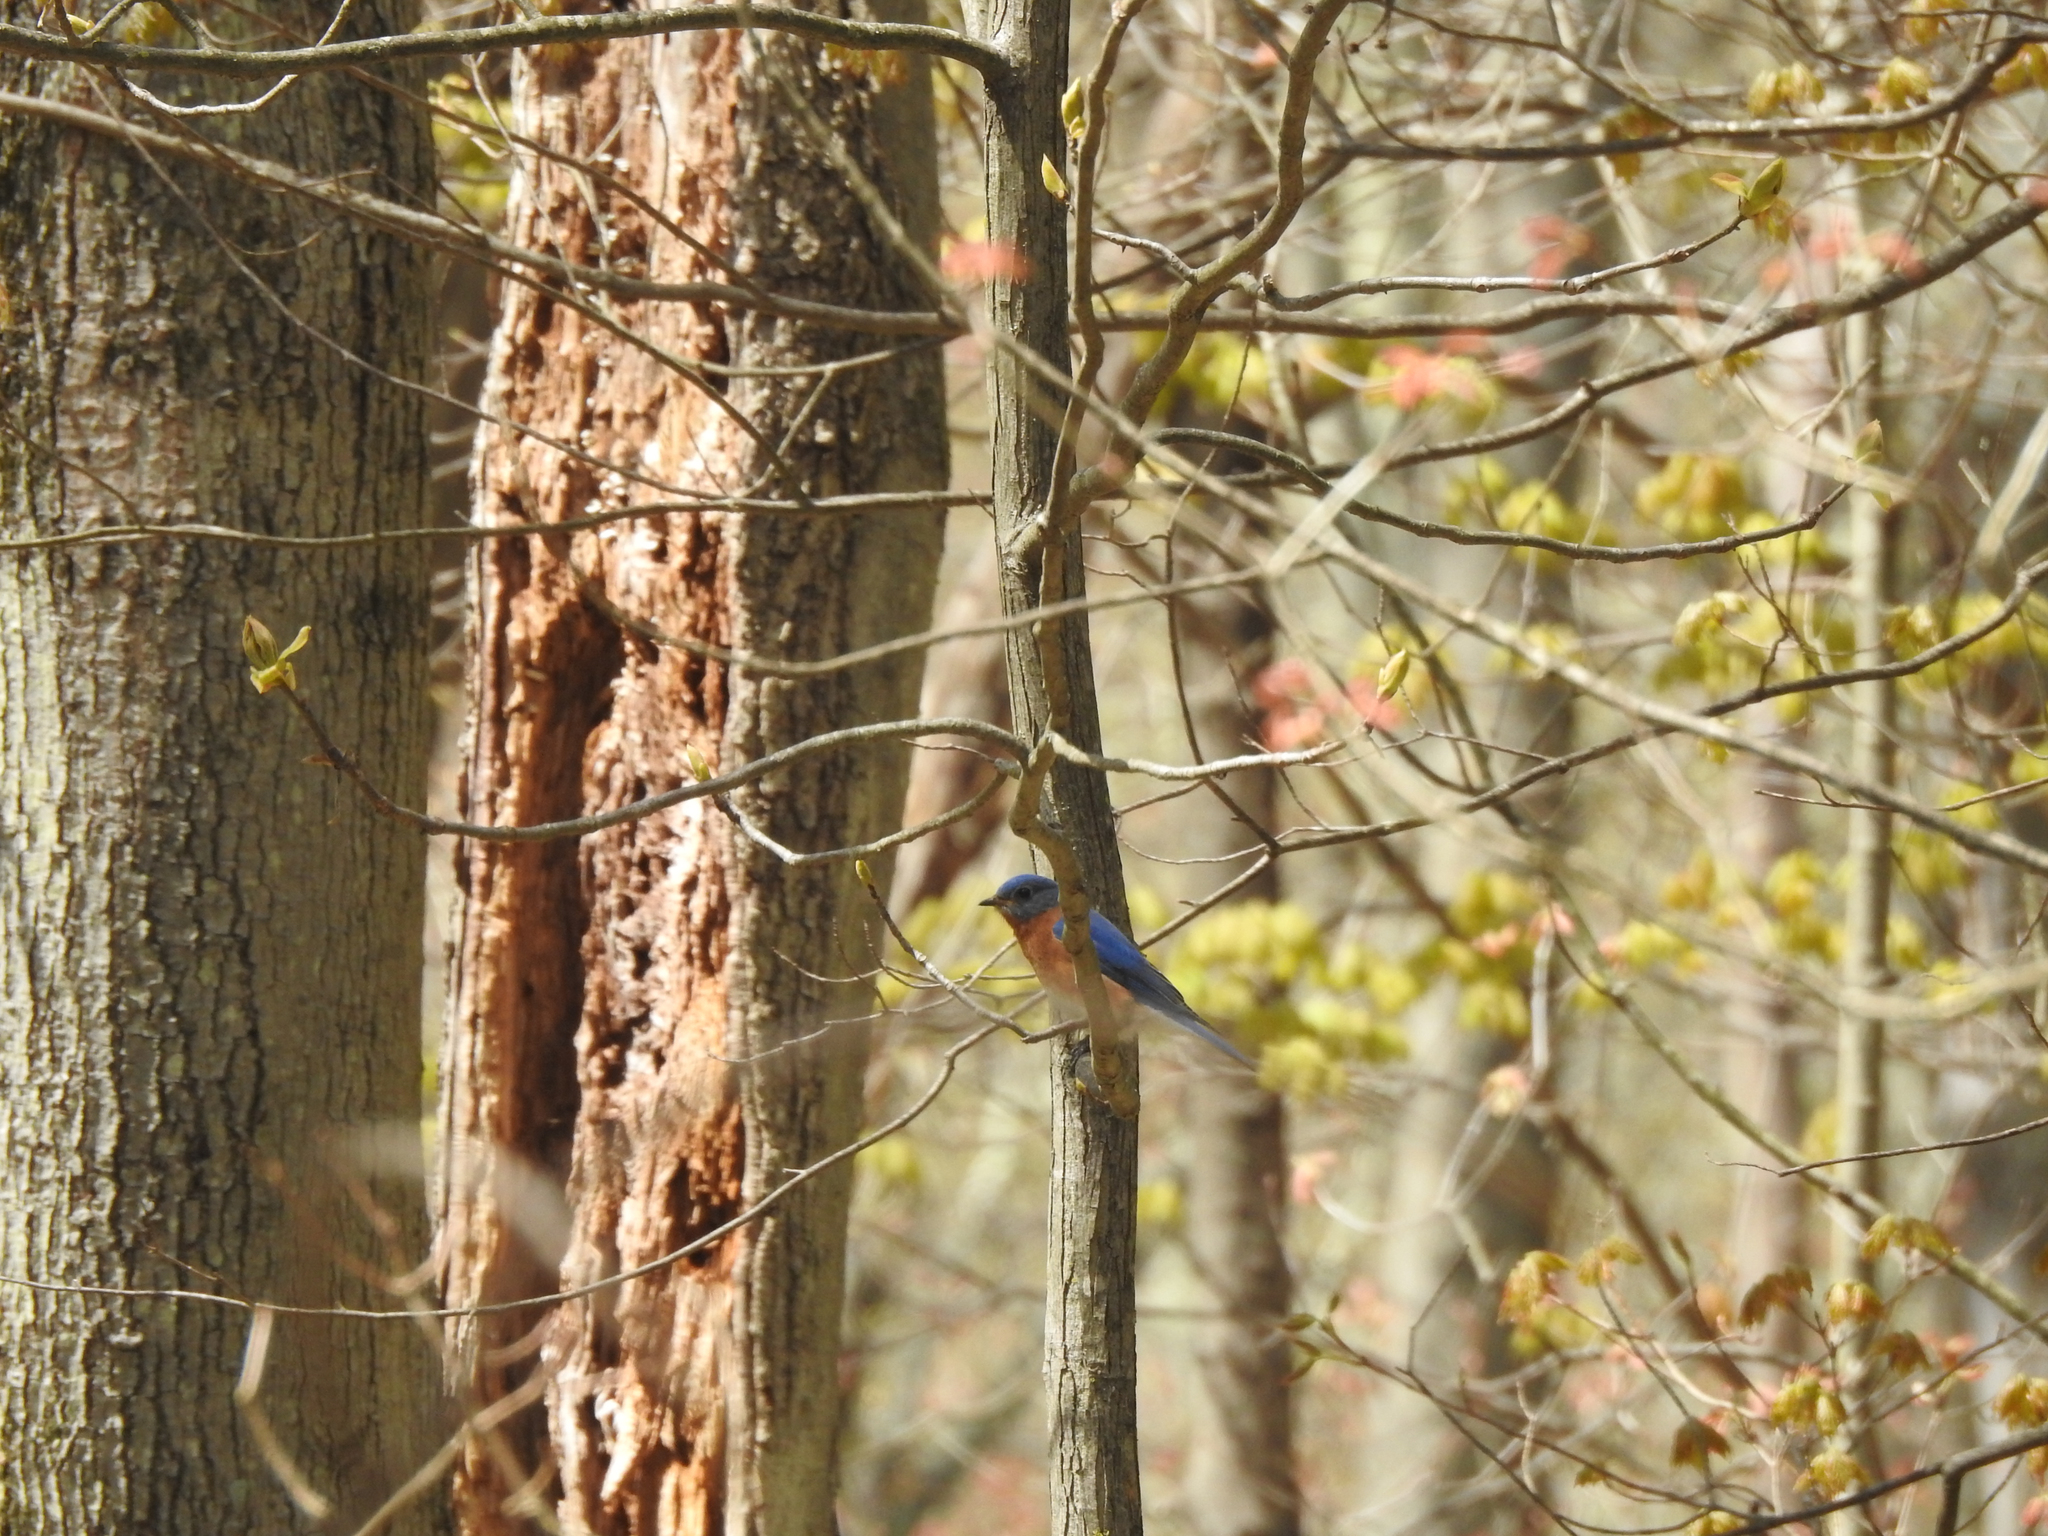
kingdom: Animalia
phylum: Chordata
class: Aves
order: Passeriformes
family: Turdidae
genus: Sialia
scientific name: Sialia sialis
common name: Eastern bluebird
